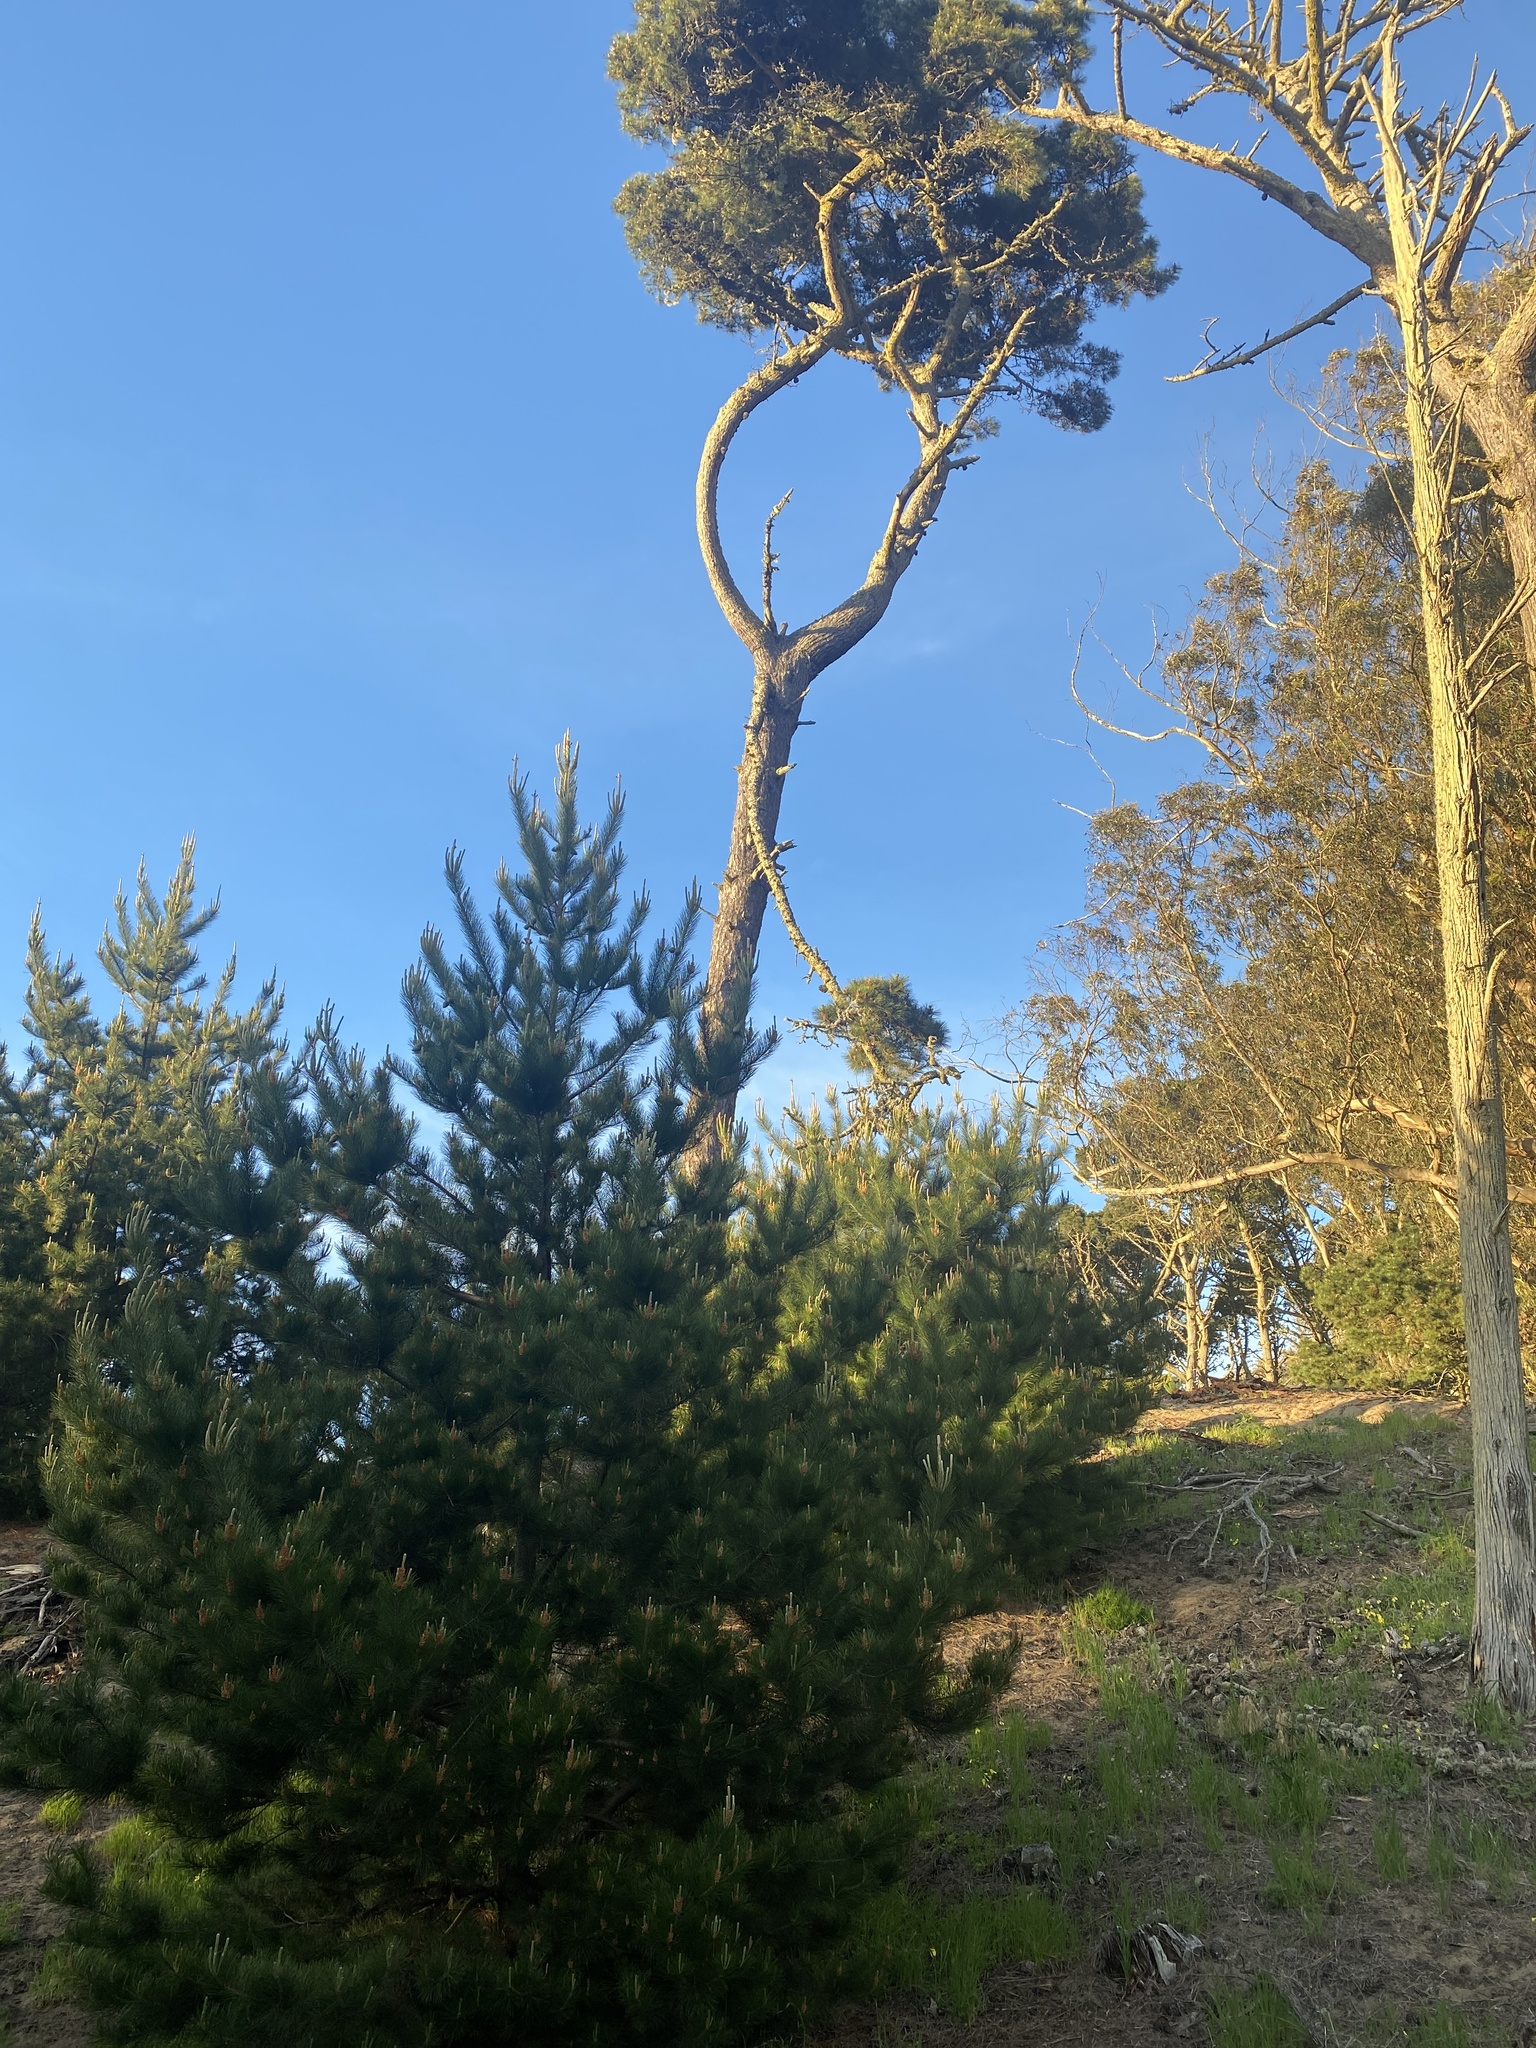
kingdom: Plantae
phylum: Tracheophyta
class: Pinopsida
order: Pinales
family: Pinaceae
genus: Pinus
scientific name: Pinus radiata
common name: Monterey pine
